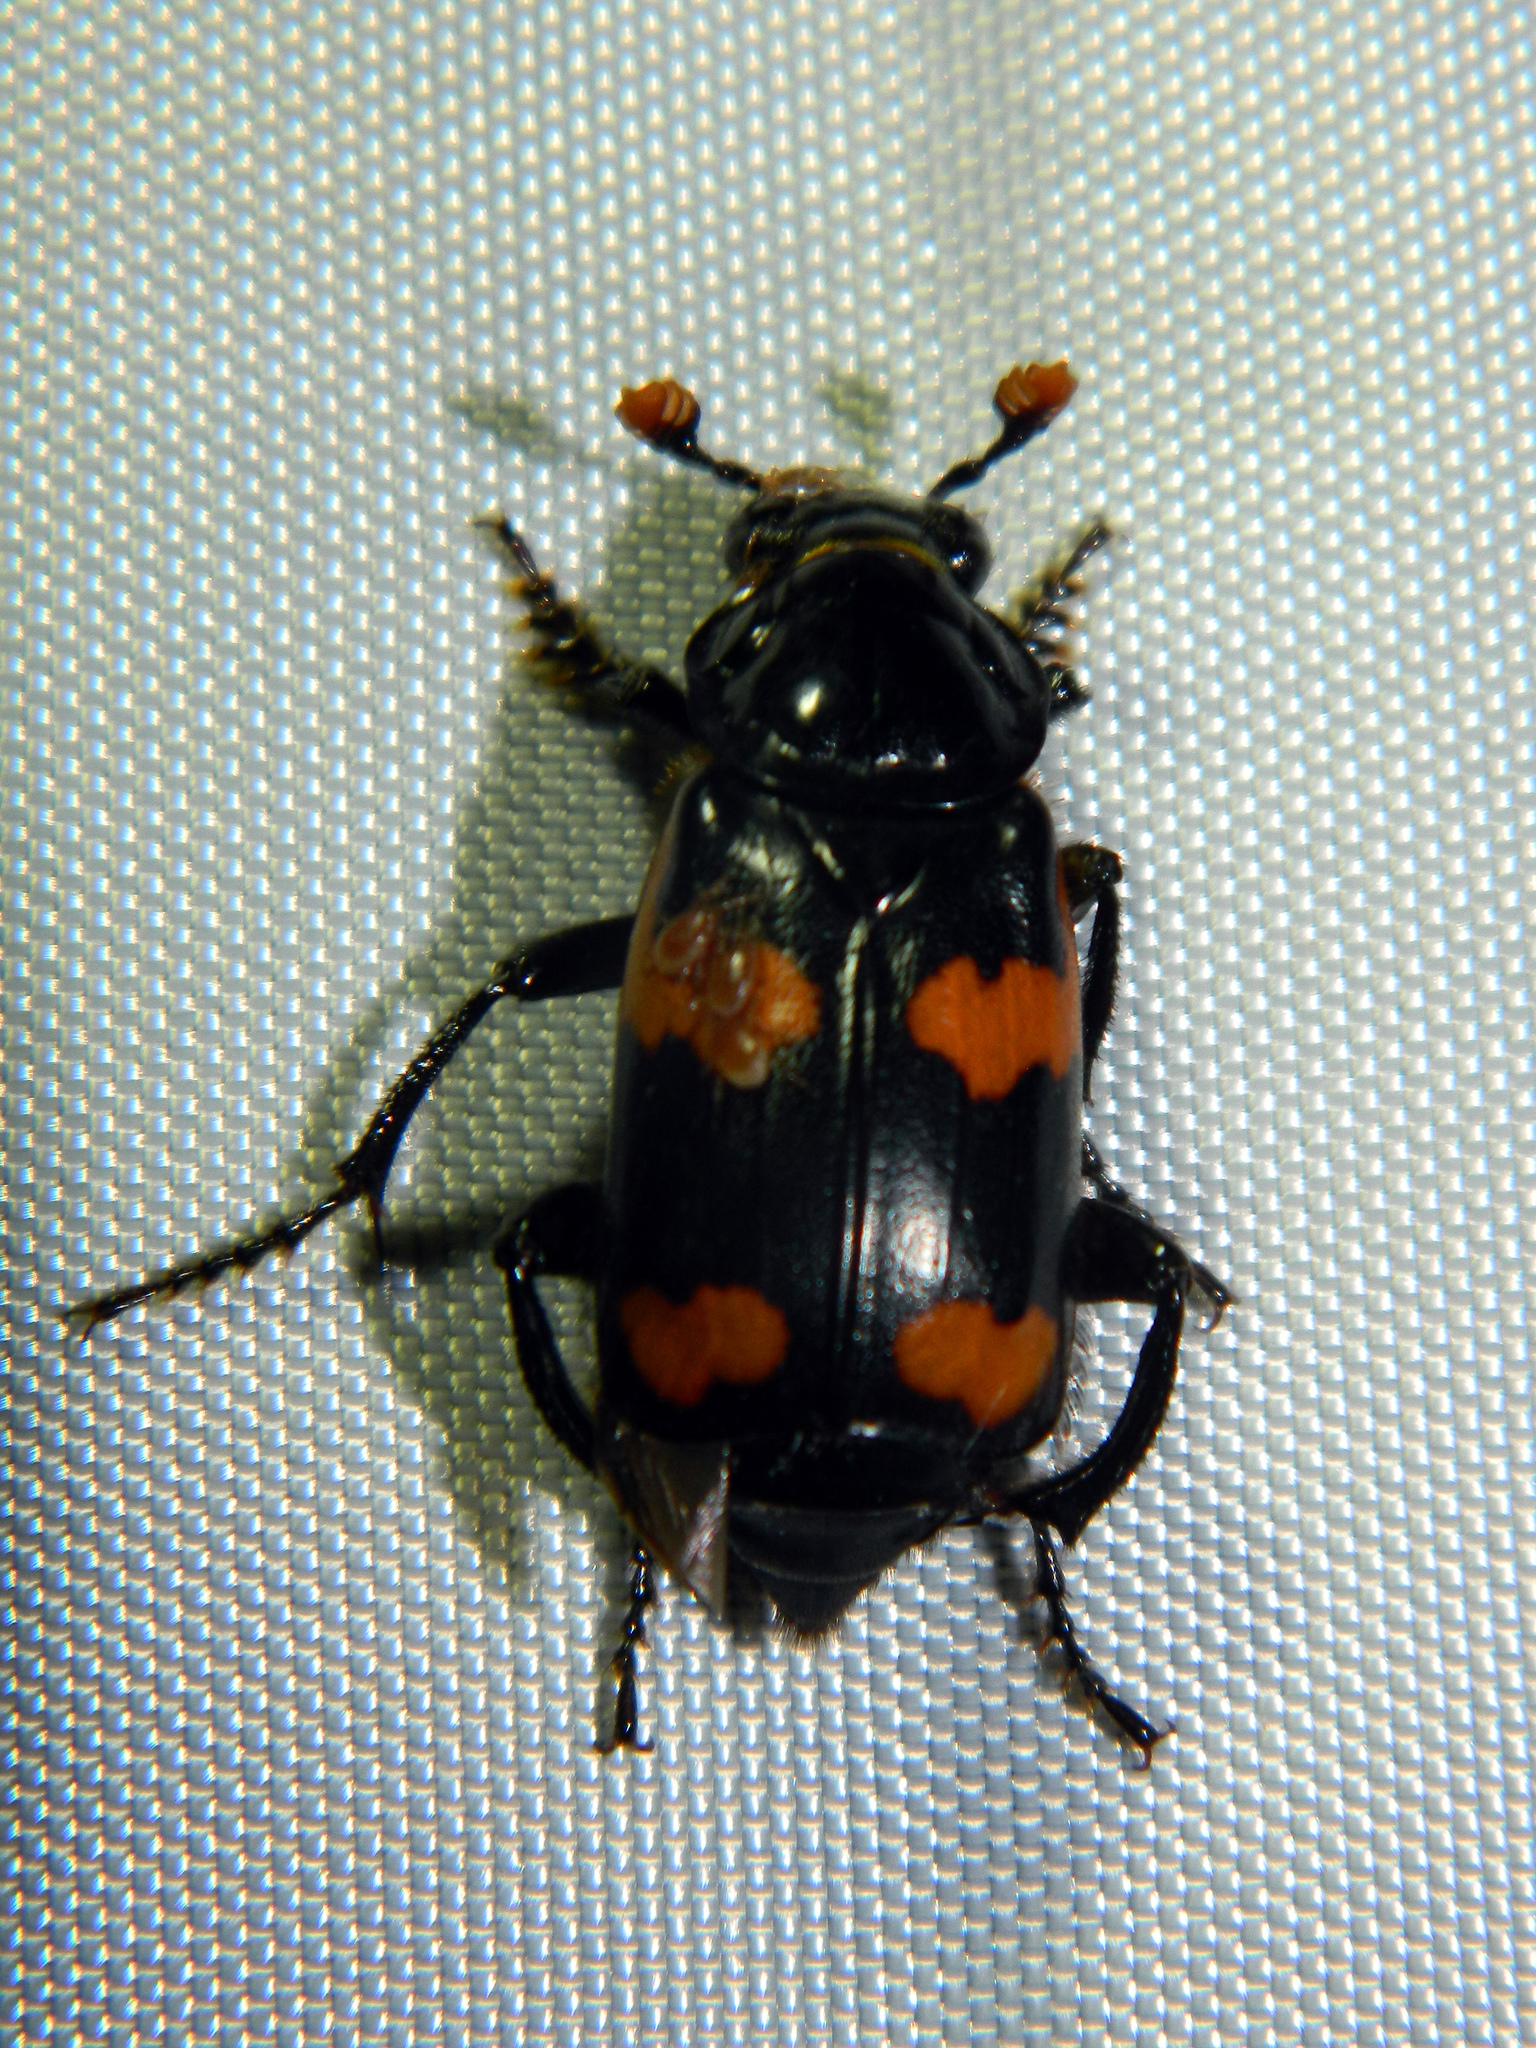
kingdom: Animalia
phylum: Arthropoda
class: Insecta
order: Coleoptera
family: Staphylinidae
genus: Nicrophorus
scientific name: Nicrophorus sayi
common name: Say's burying beetle
